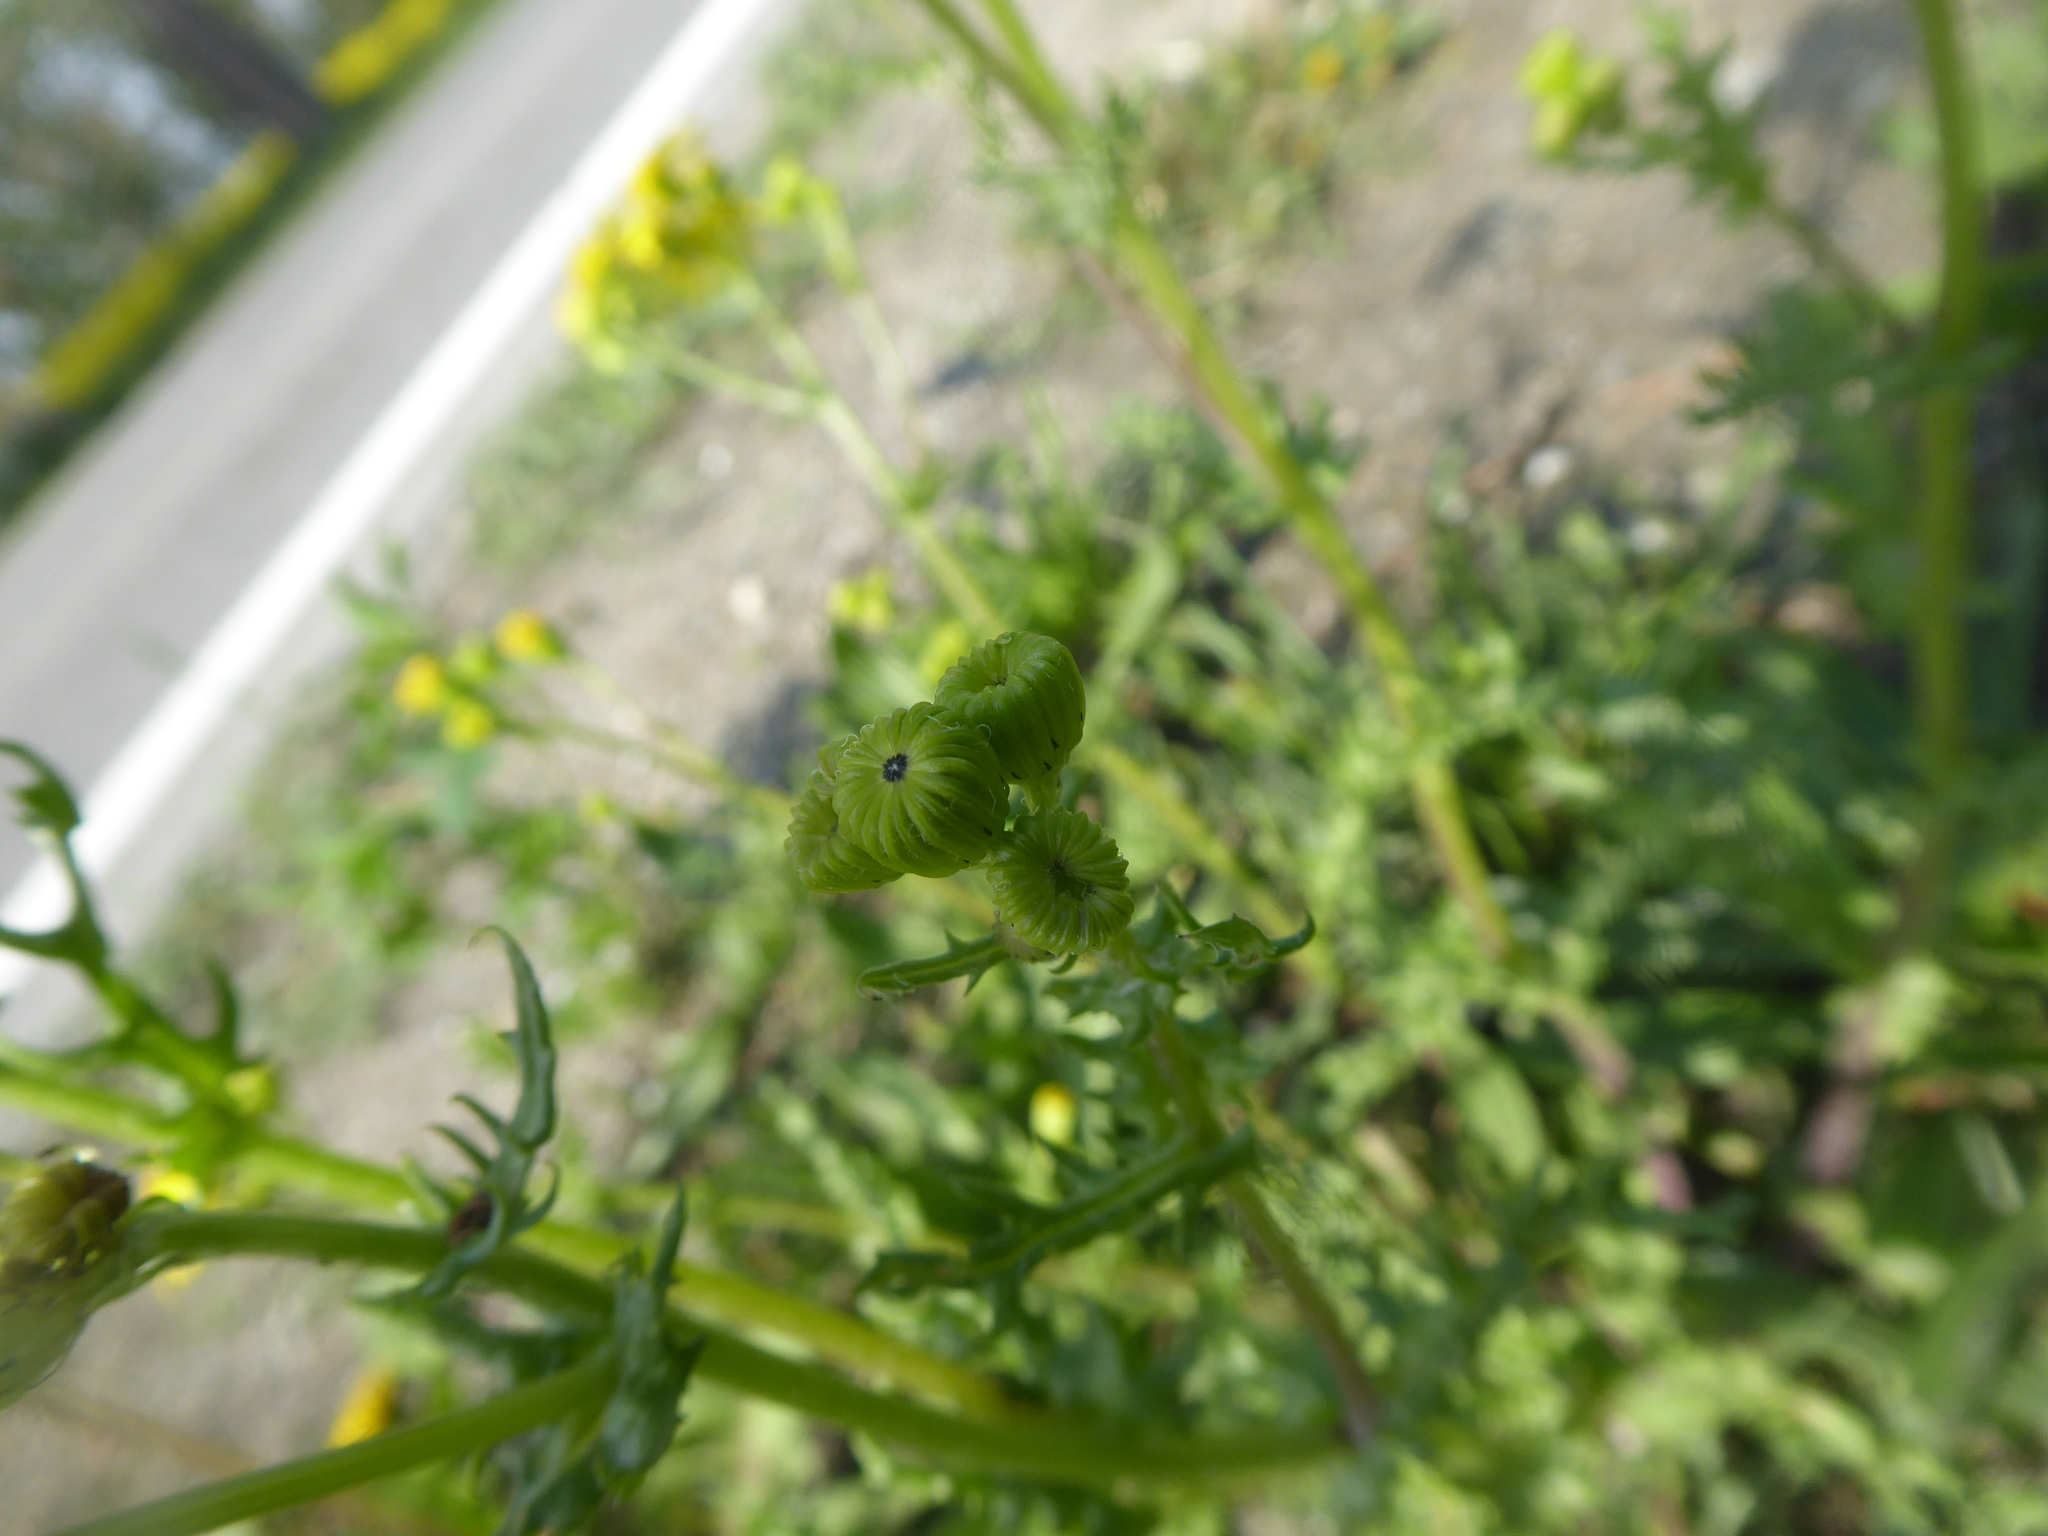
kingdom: Plantae
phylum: Tracheophyta
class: Magnoliopsida
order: Asterales
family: Asteraceae
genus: Senecio
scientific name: Senecio vernalis
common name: Eastern groundsel
